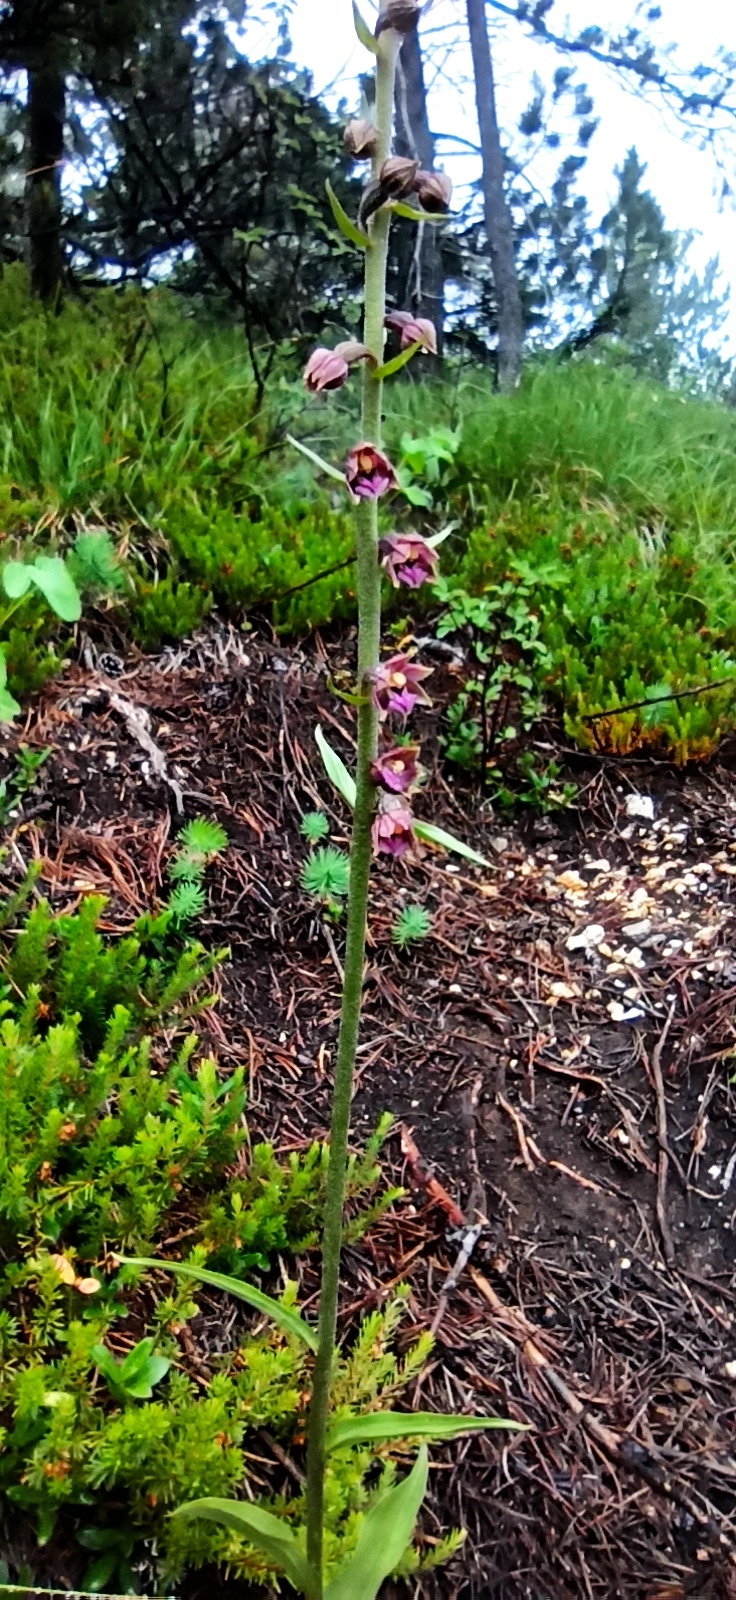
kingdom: Plantae
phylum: Tracheophyta
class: Liliopsida
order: Asparagales
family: Orchidaceae
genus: Epipactis
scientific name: Epipactis atrorubens
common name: Dark-red helleborine
